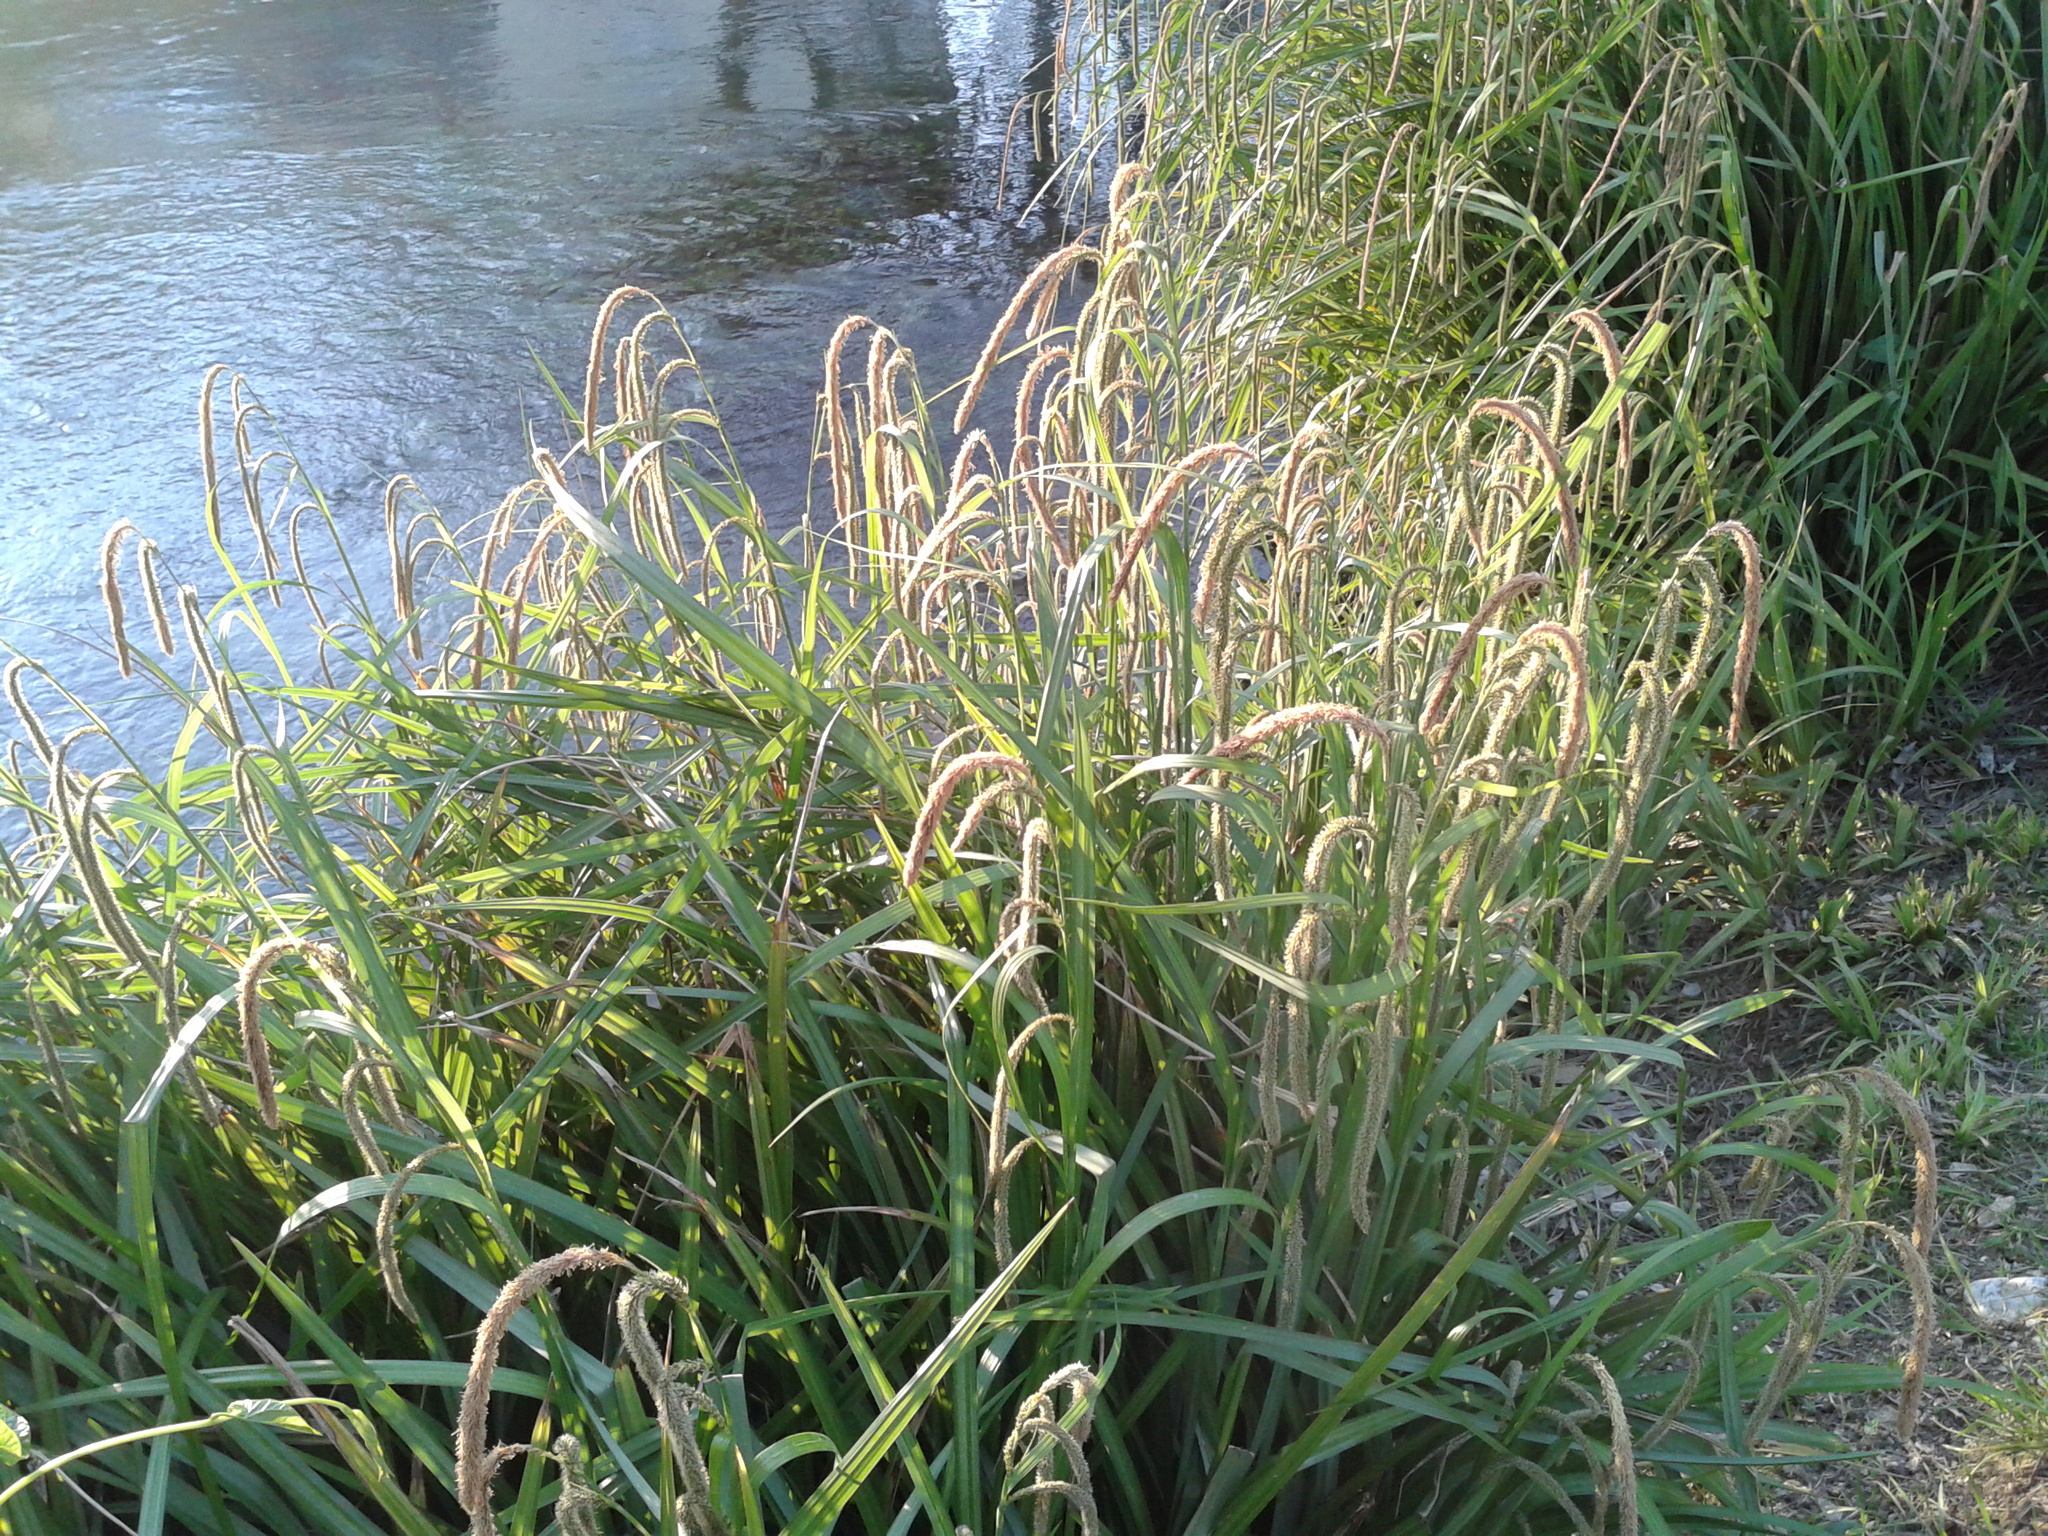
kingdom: Plantae
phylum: Tracheophyta
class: Liliopsida
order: Poales
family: Cyperaceae
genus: Carex
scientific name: Carex pendula
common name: Pendulous sedge
